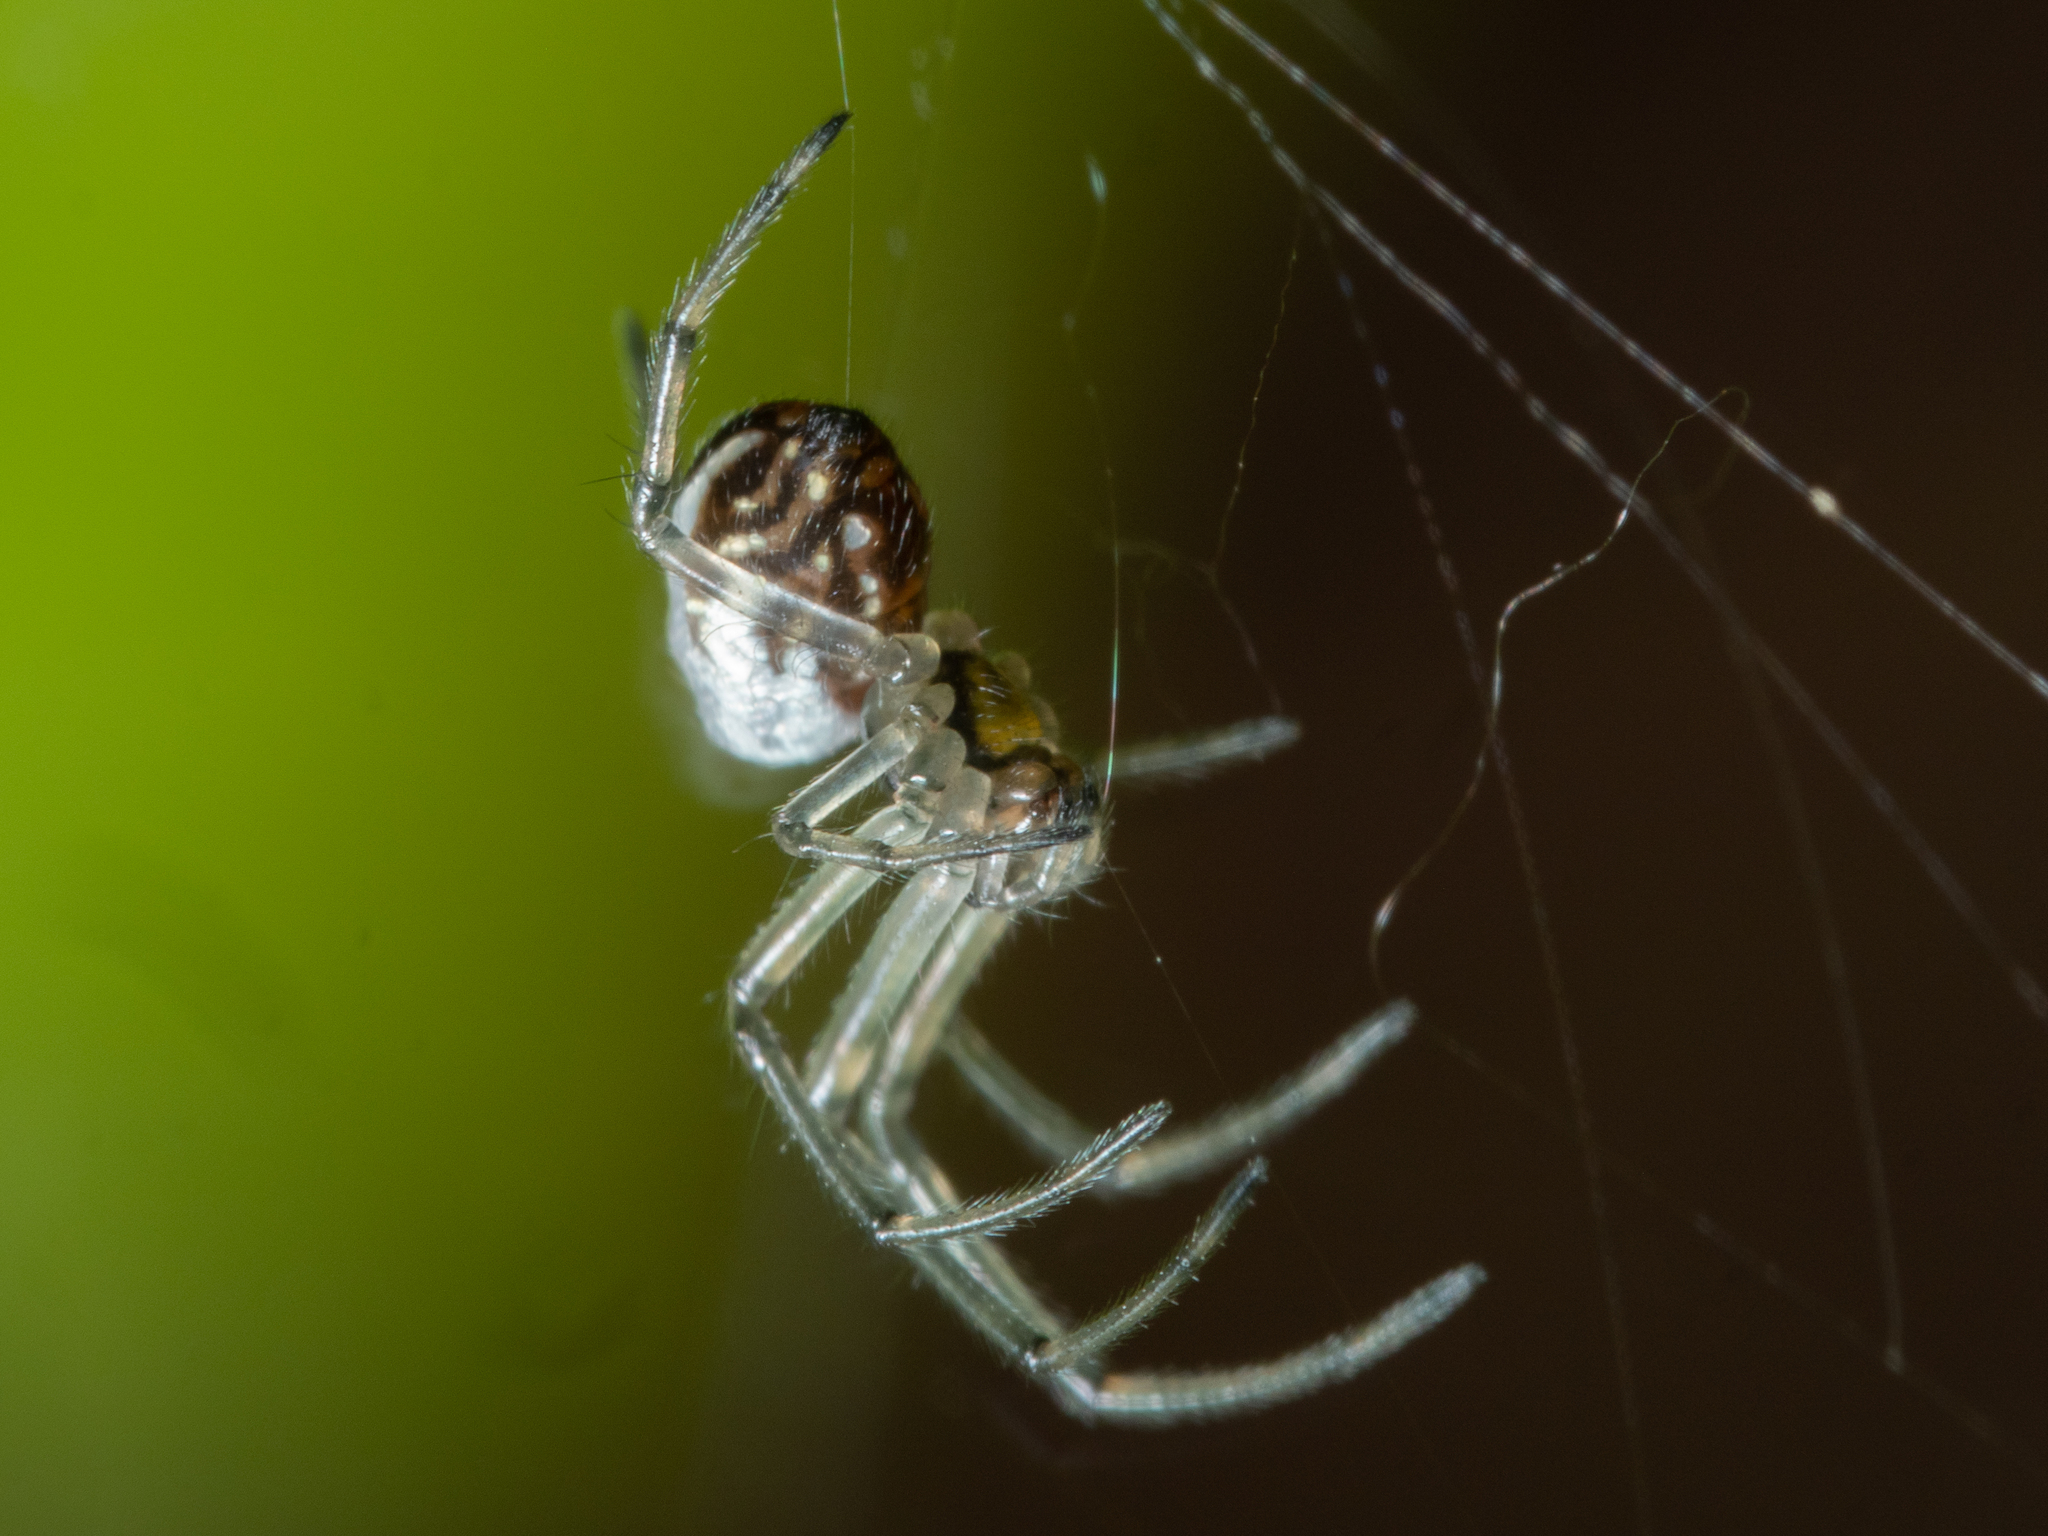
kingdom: Animalia
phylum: Arthropoda
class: Arachnida
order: Araneae
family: Tetragnathidae
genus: Leucauge
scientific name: Leucauge dromedaria
